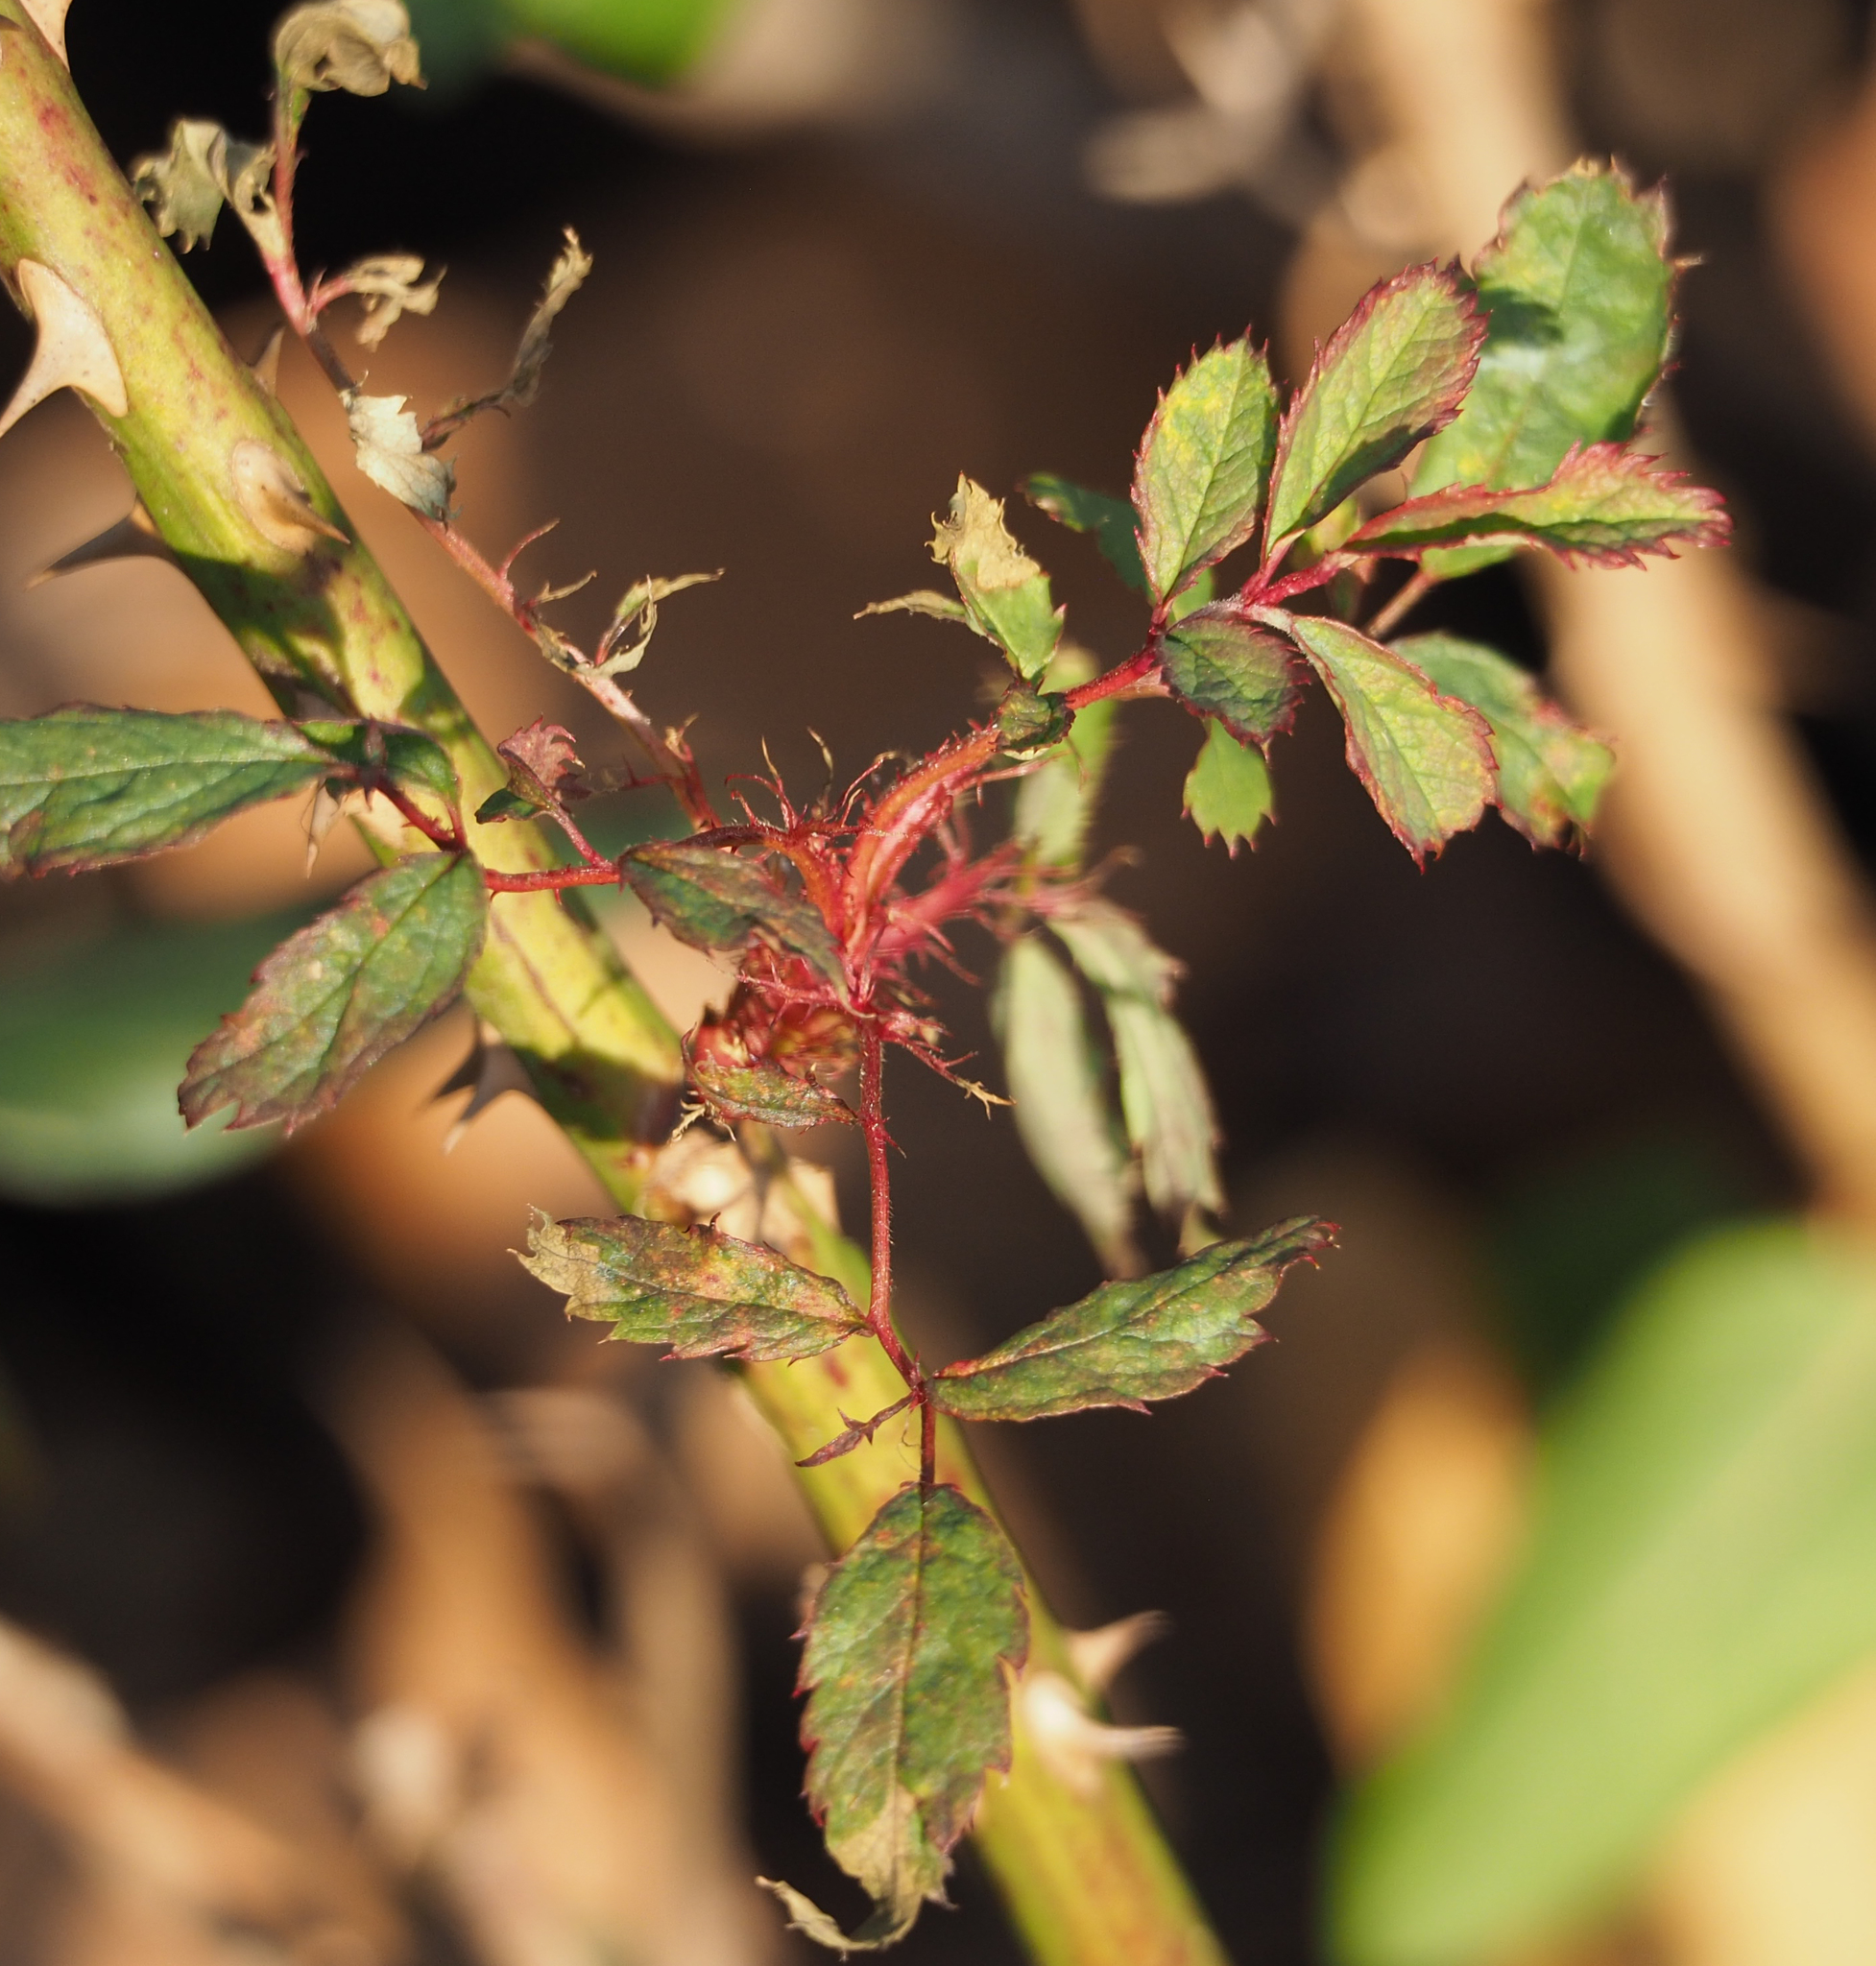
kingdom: Plantae
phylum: Tracheophyta
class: Magnoliopsida
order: Rosales
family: Rosaceae
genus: Rosa
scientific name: Rosa multiflora
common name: Multiflora rose
